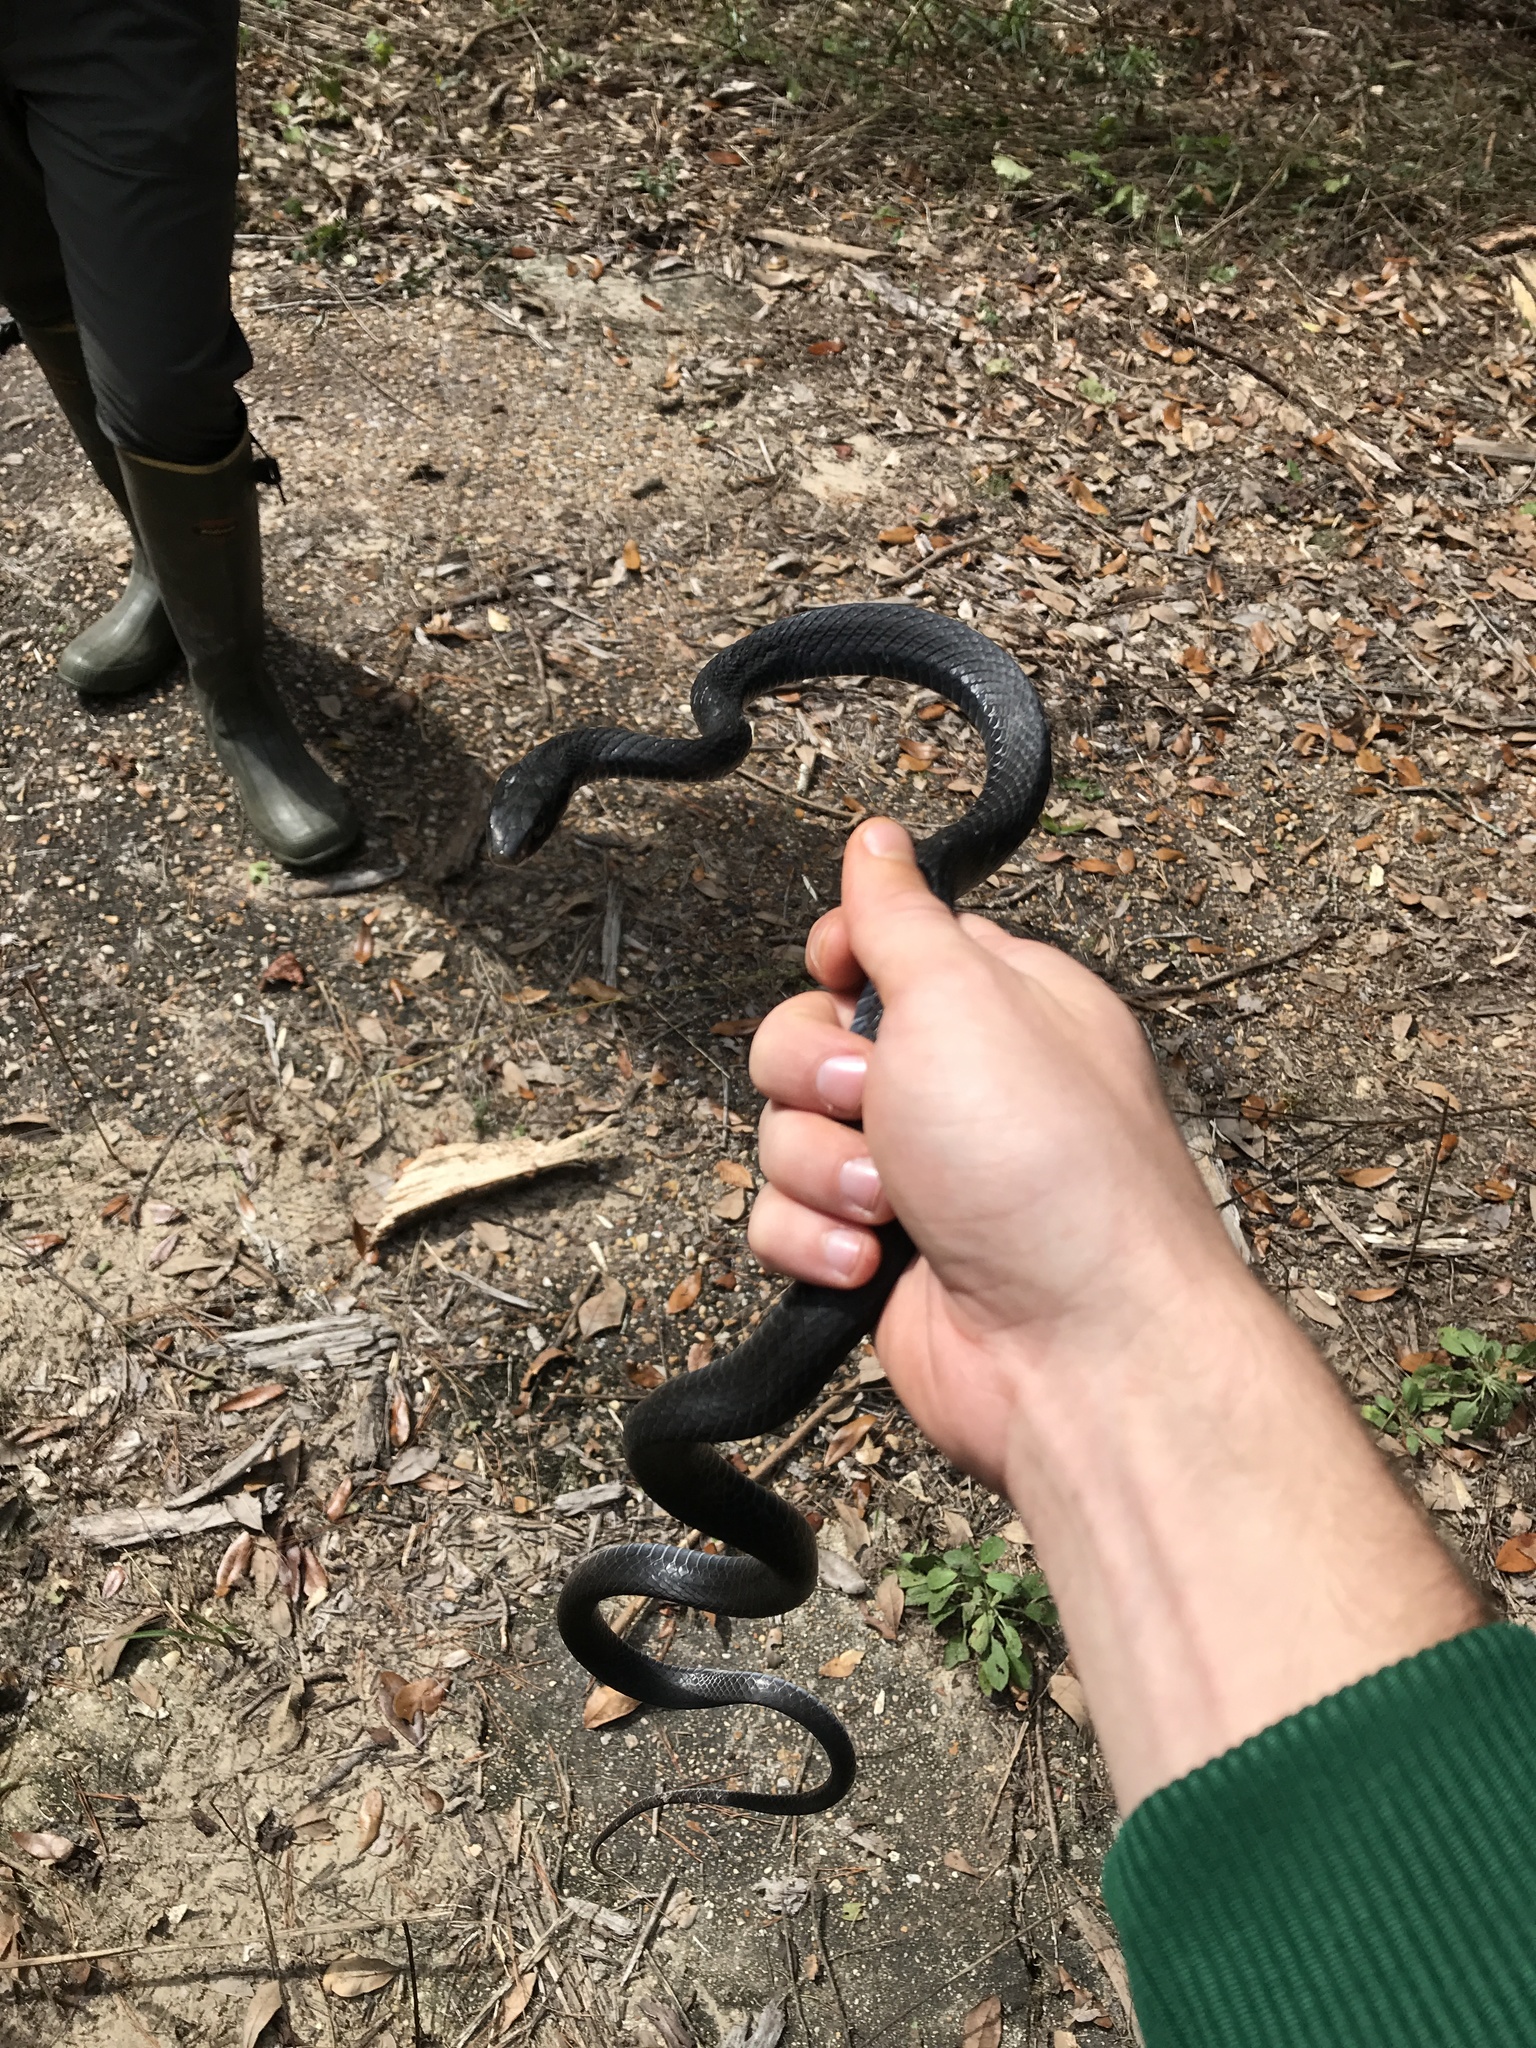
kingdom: Animalia
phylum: Chordata
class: Squamata
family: Colubridae
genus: Coluber
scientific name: Coluber constrictor
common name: Eastern racer
